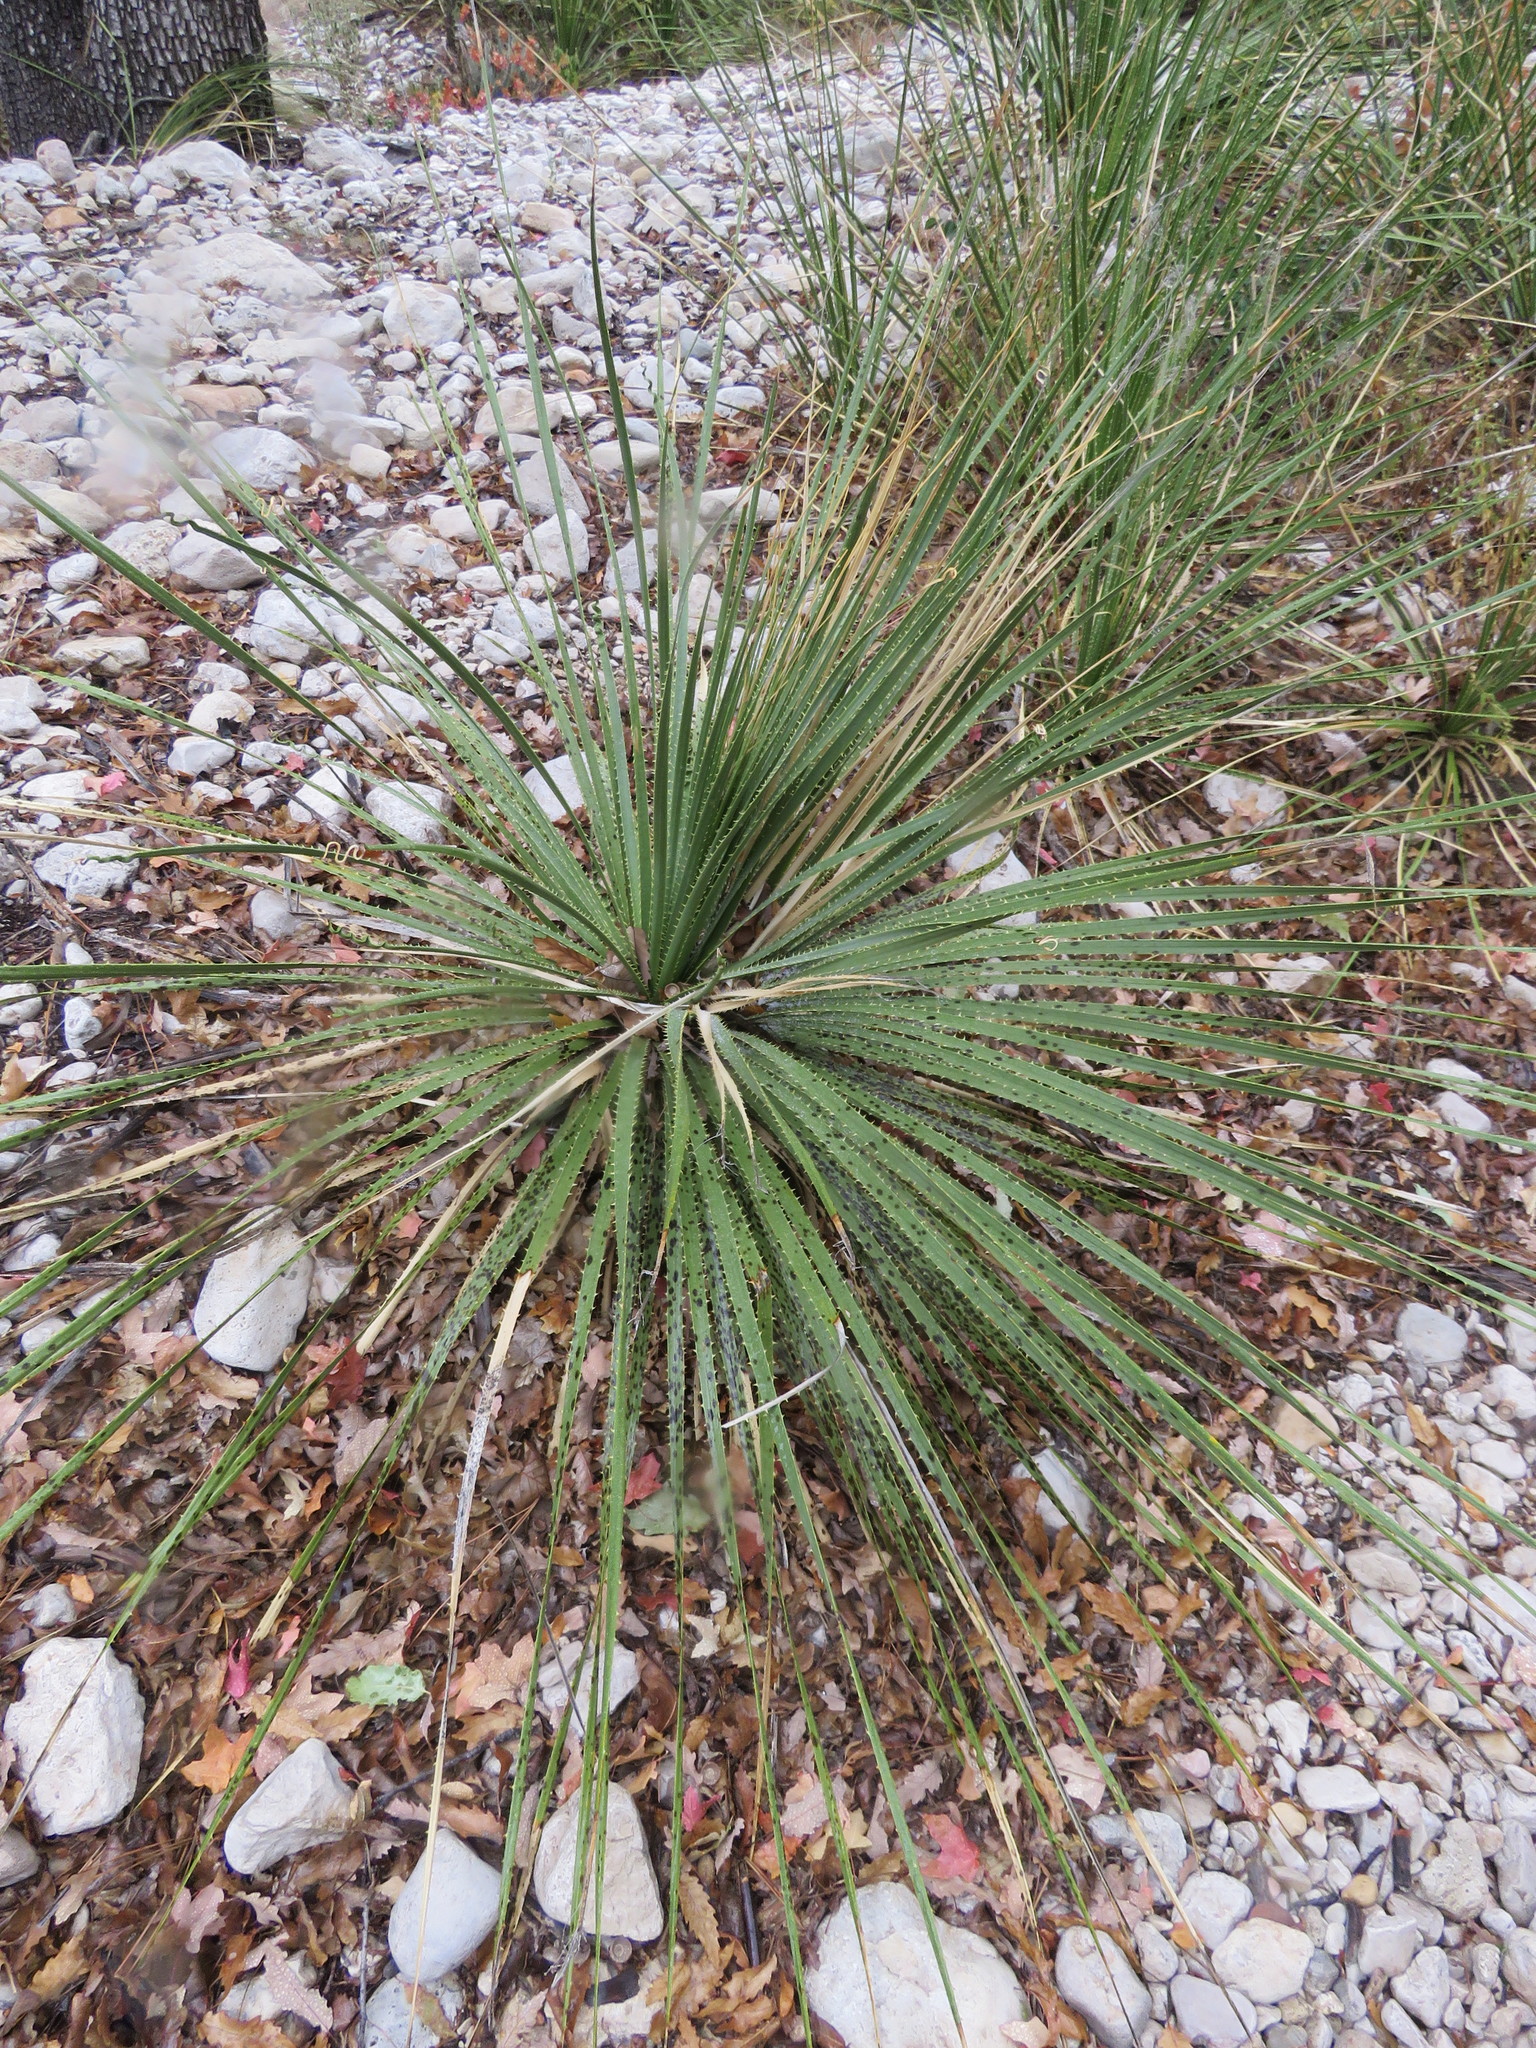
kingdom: Plantae
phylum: Tracheophyta
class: Liliopsida
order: Asparagales
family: Asparagaceae
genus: Dasylirion
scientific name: Dasylirion leiophyllum
